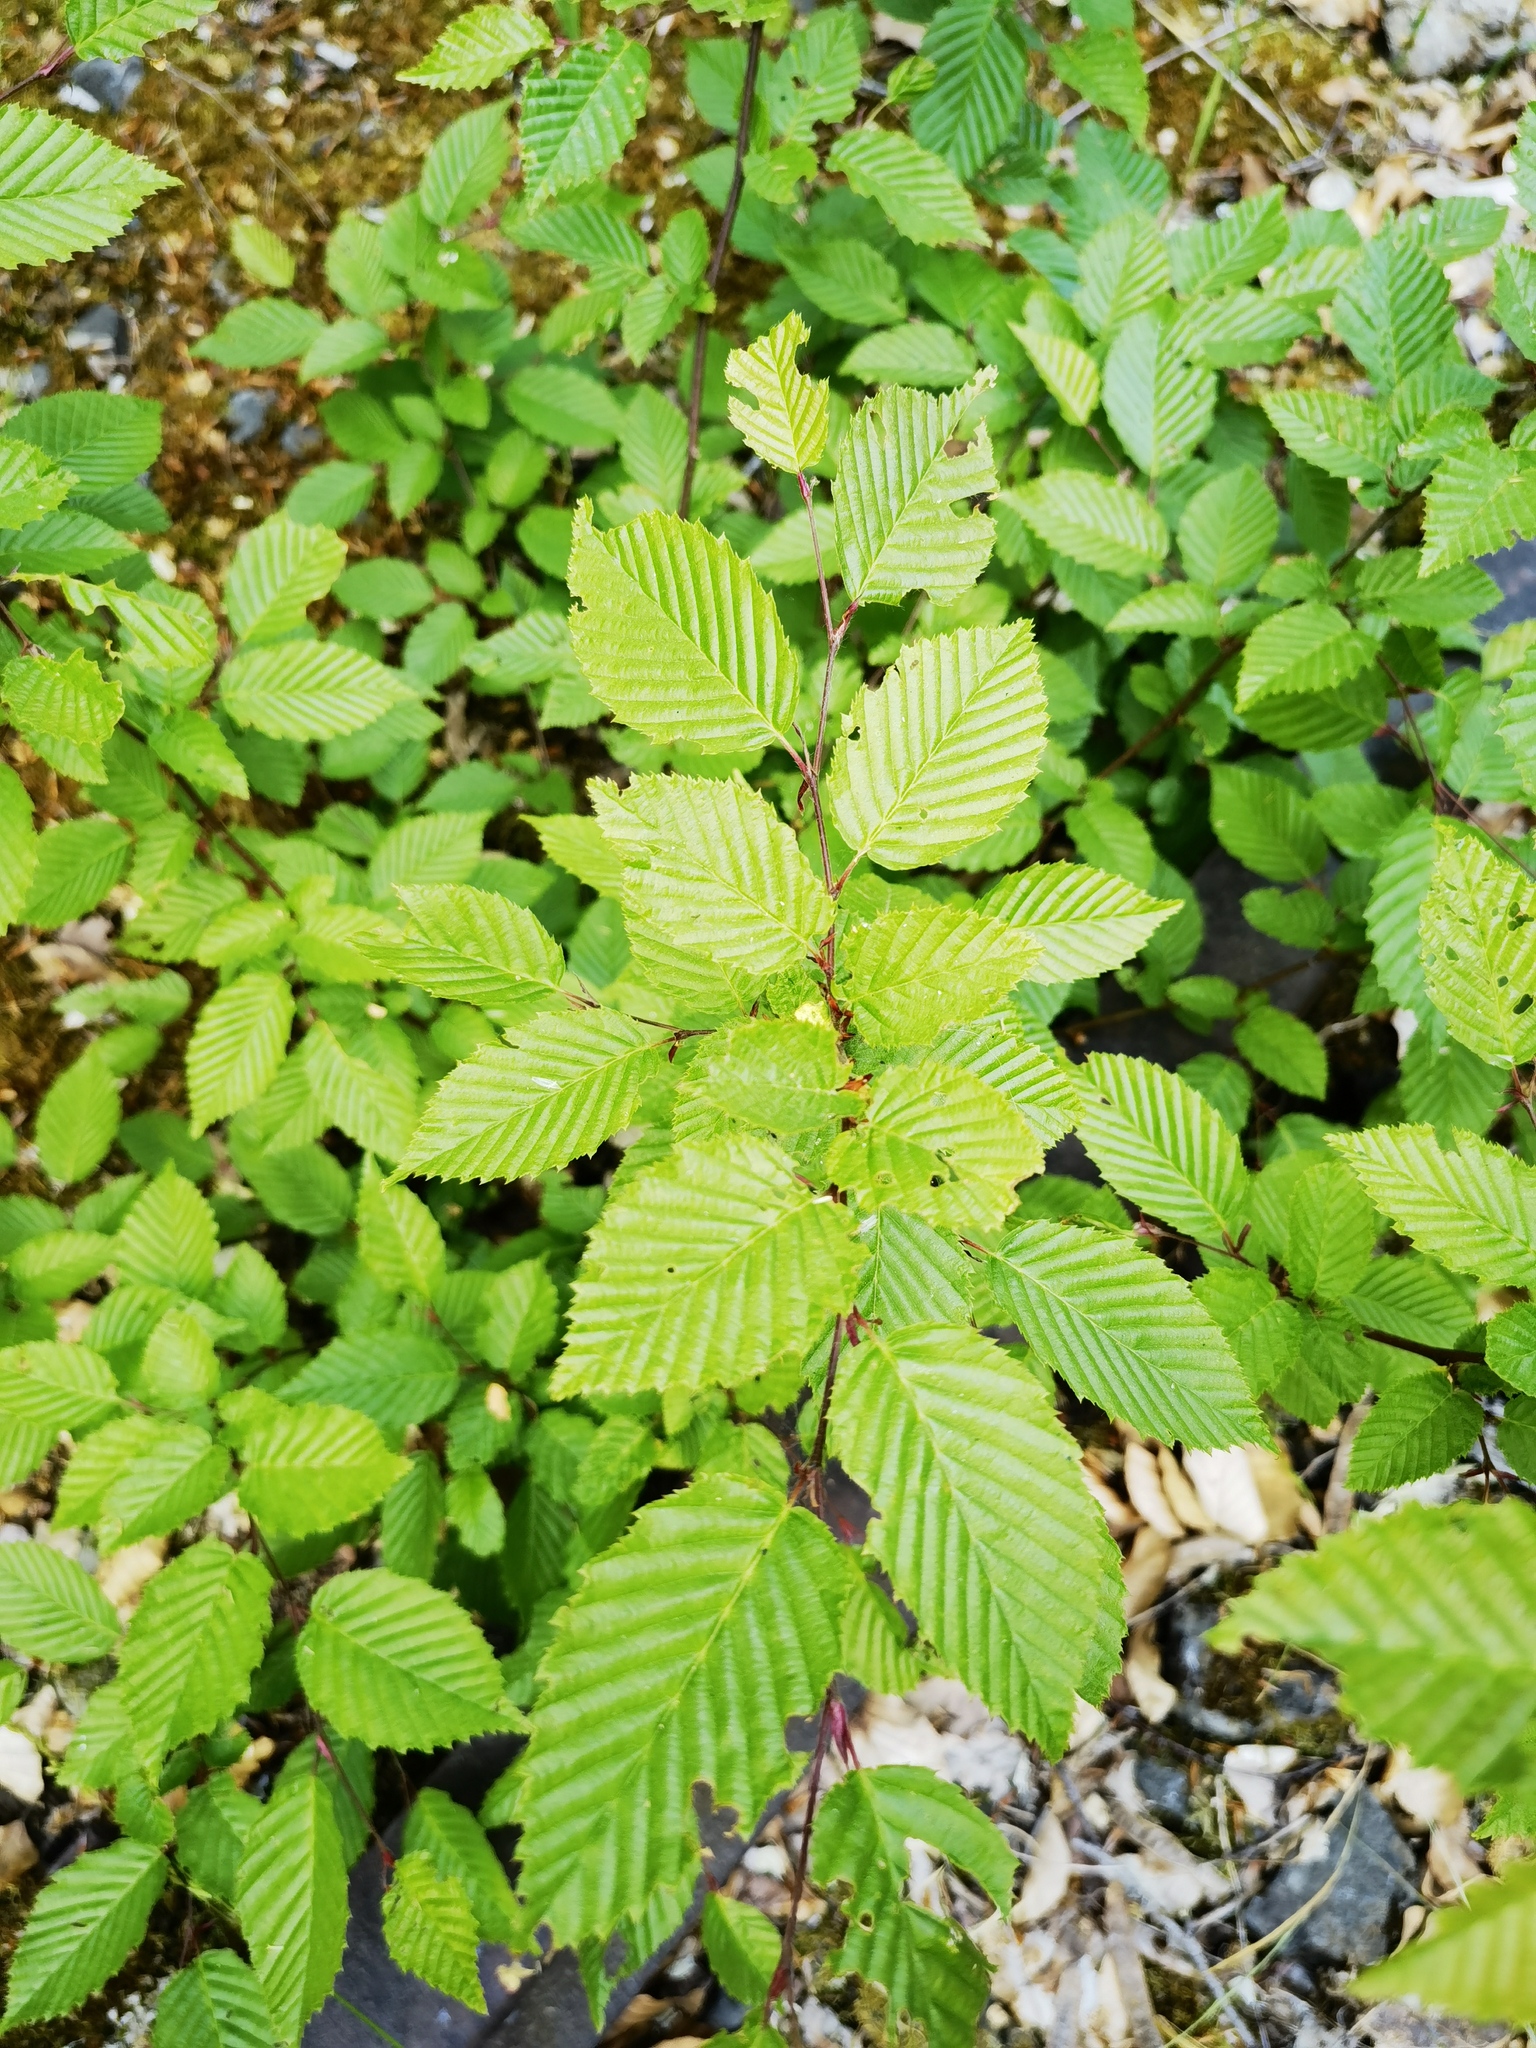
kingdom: Plantae
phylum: Tracheophyta
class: Magnoliopsida
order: Fagales
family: Betulaceae
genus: Carpinus
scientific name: Carpinus betulus
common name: Hornbeam
